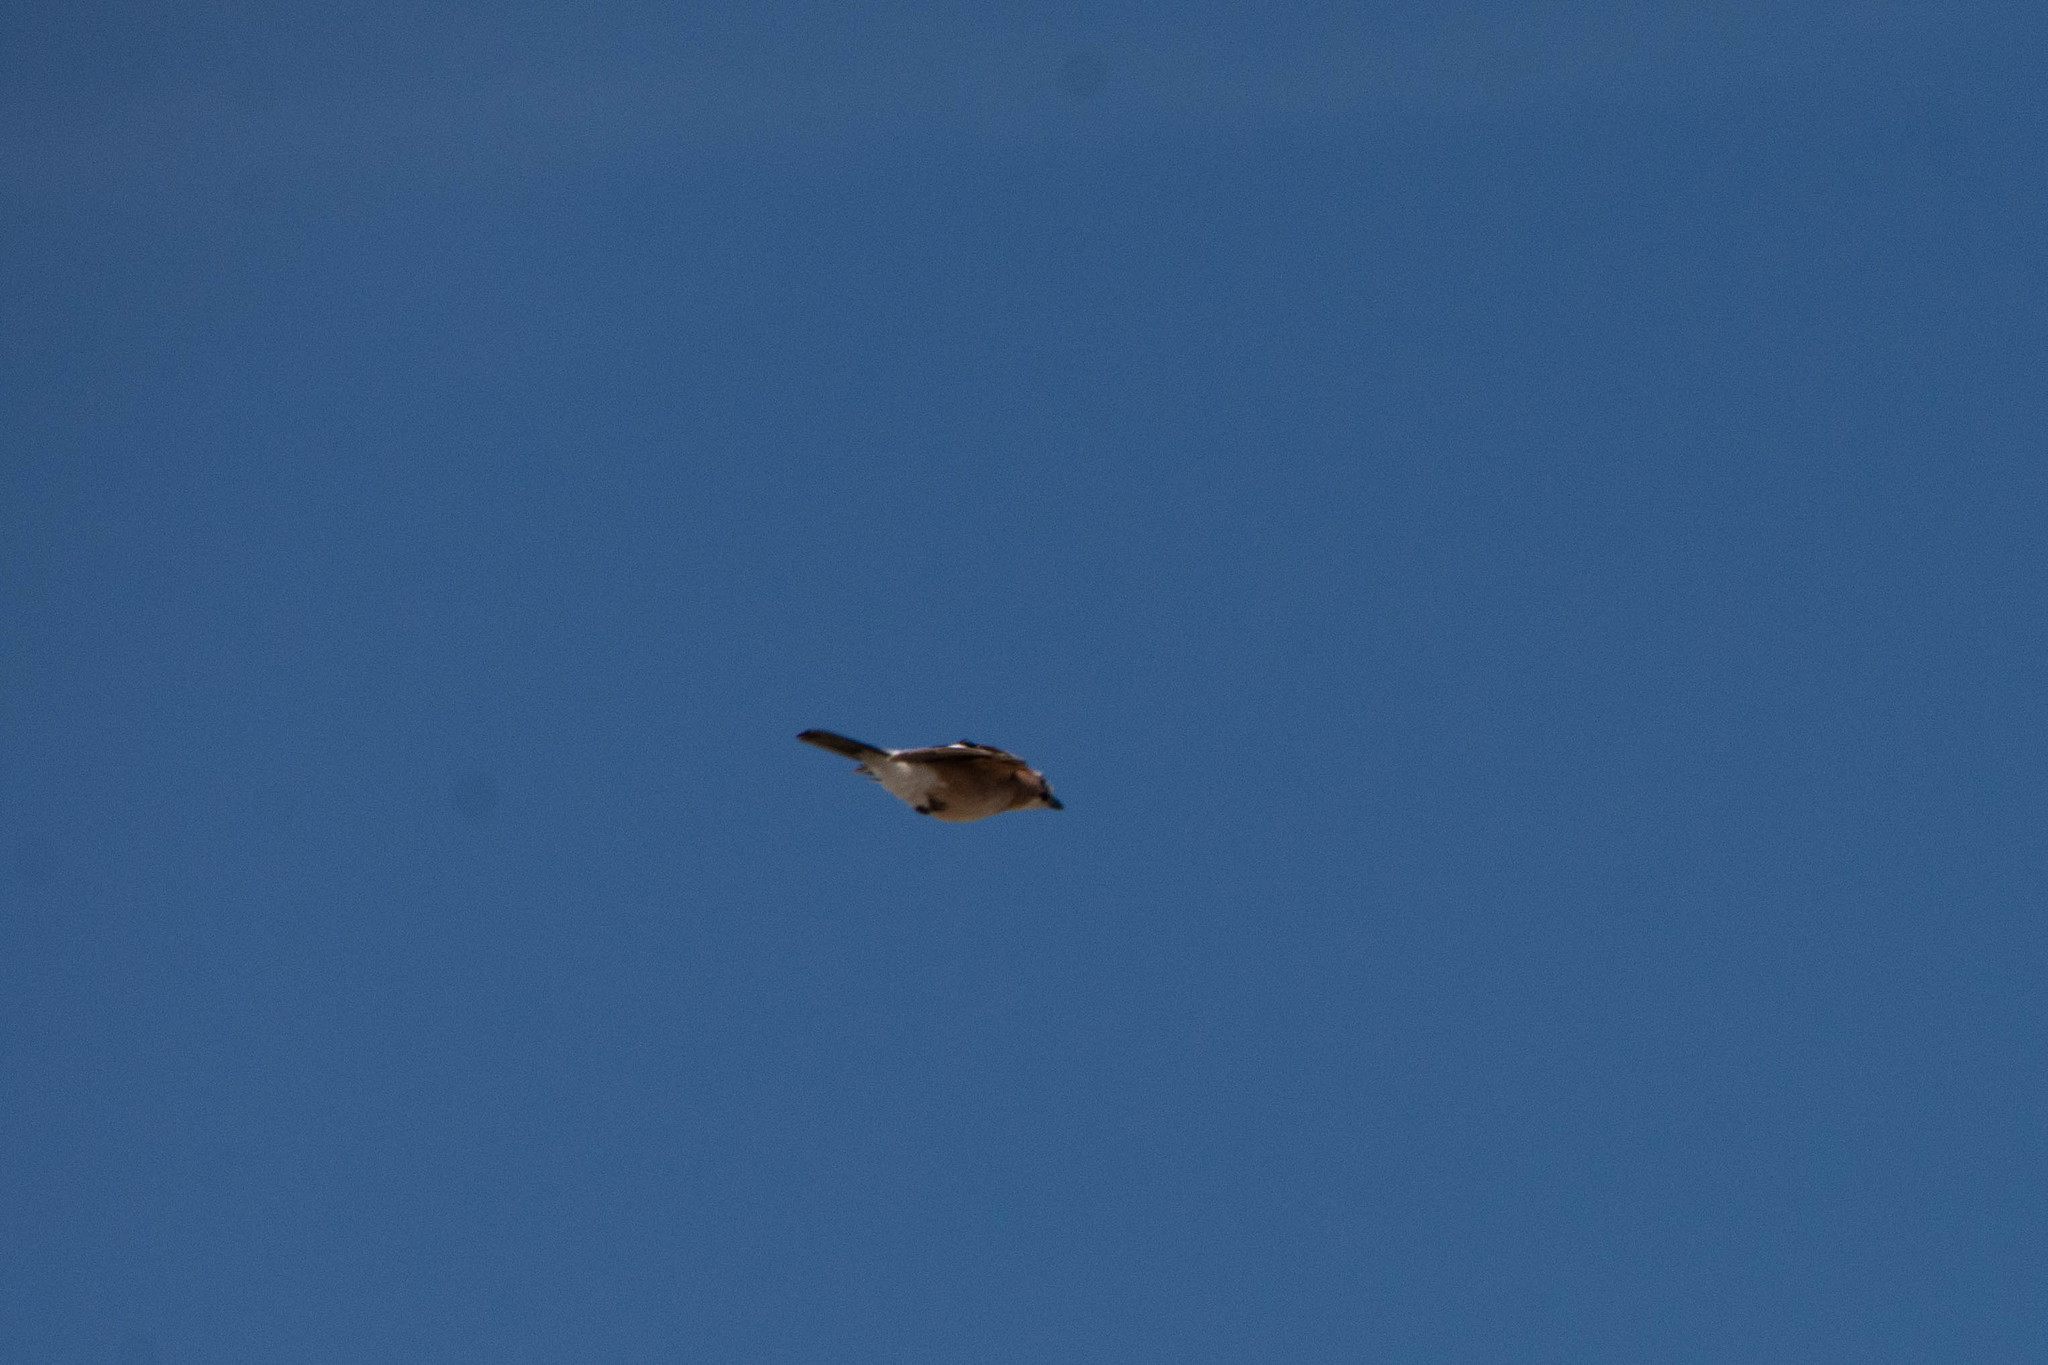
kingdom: Animalia
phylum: Chordata
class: Aves
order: Passeriformes
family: Corvidae
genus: Garrulus
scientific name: Garrulus glandarius
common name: Eurasian jay
